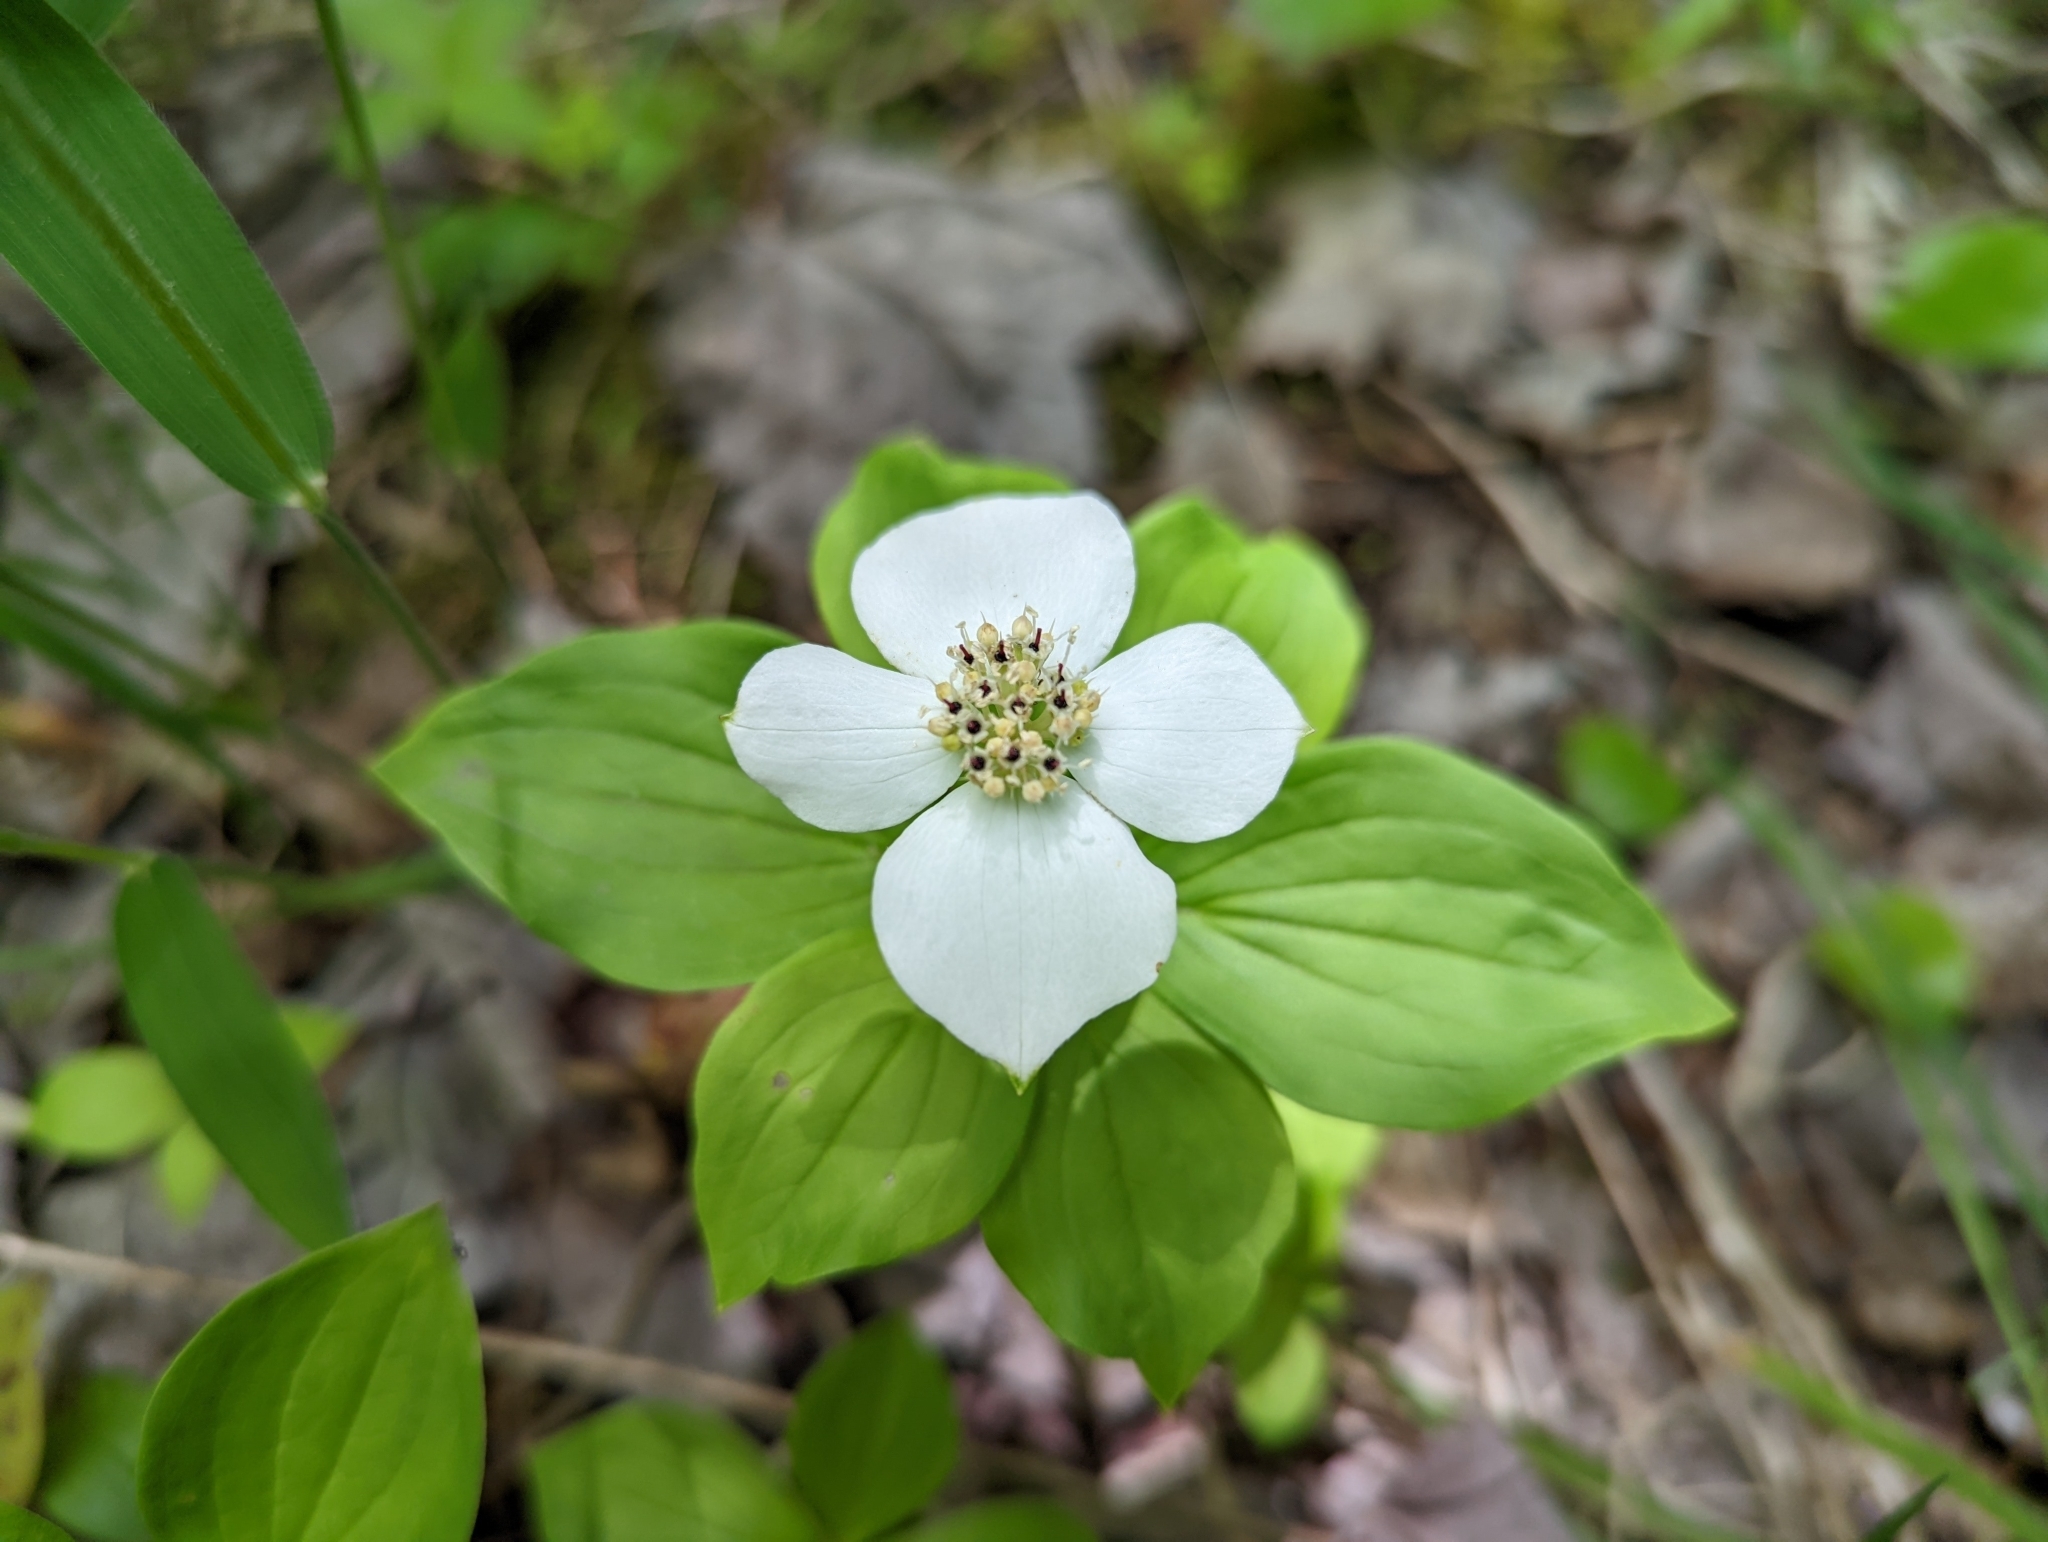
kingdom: Plantae
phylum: Tracheophyta
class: Magnoliopsida
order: Cornales
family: Cornaceae
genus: Cornus
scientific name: Cornus canadensis
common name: Creeping dogwood
